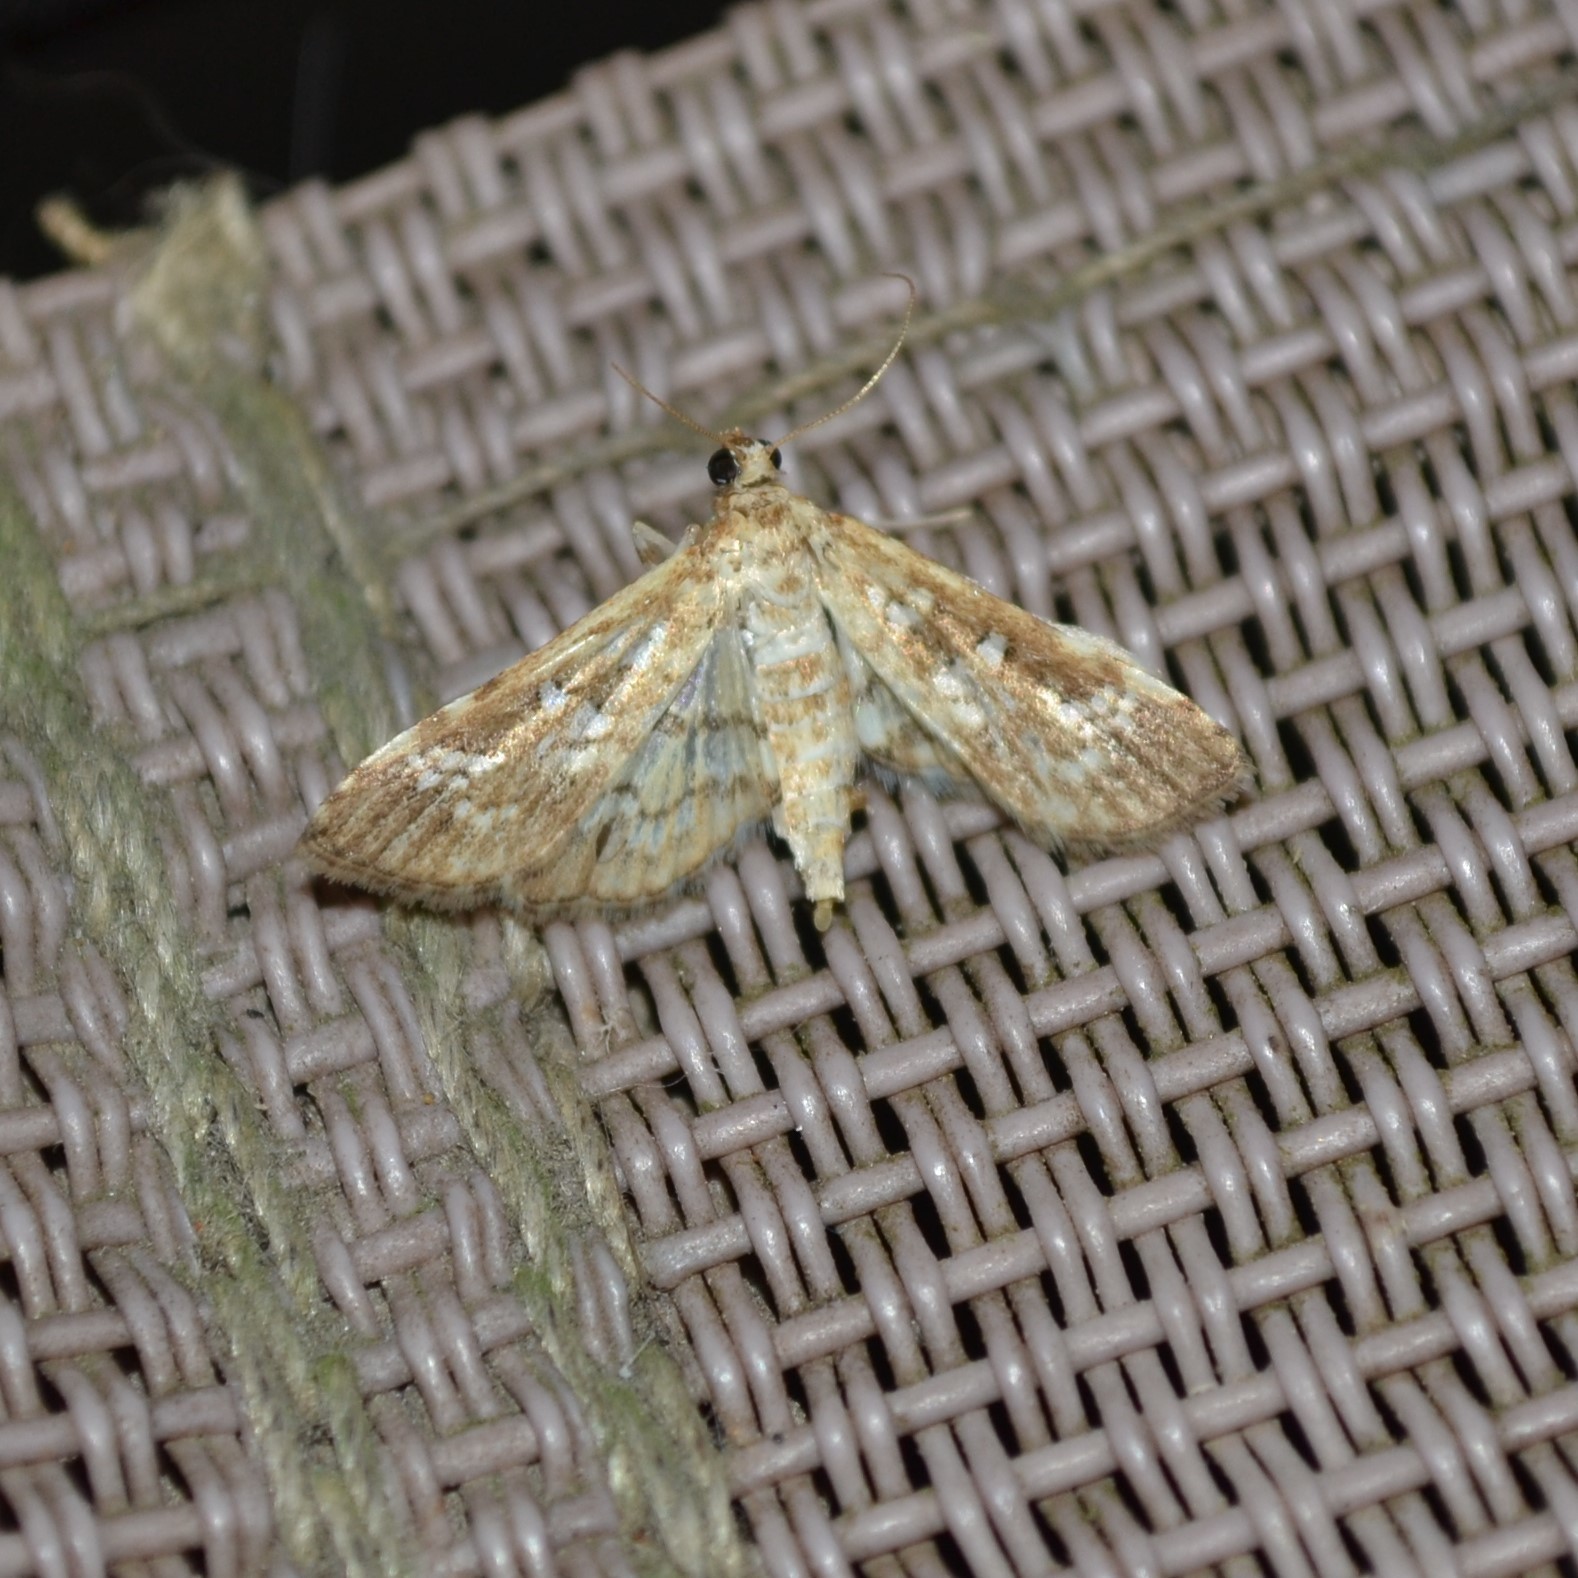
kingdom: Animalia
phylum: Arthropoda
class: Insecta
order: Lepidoptera
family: Crambidae
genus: Samea
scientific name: Samea multiplicalis
